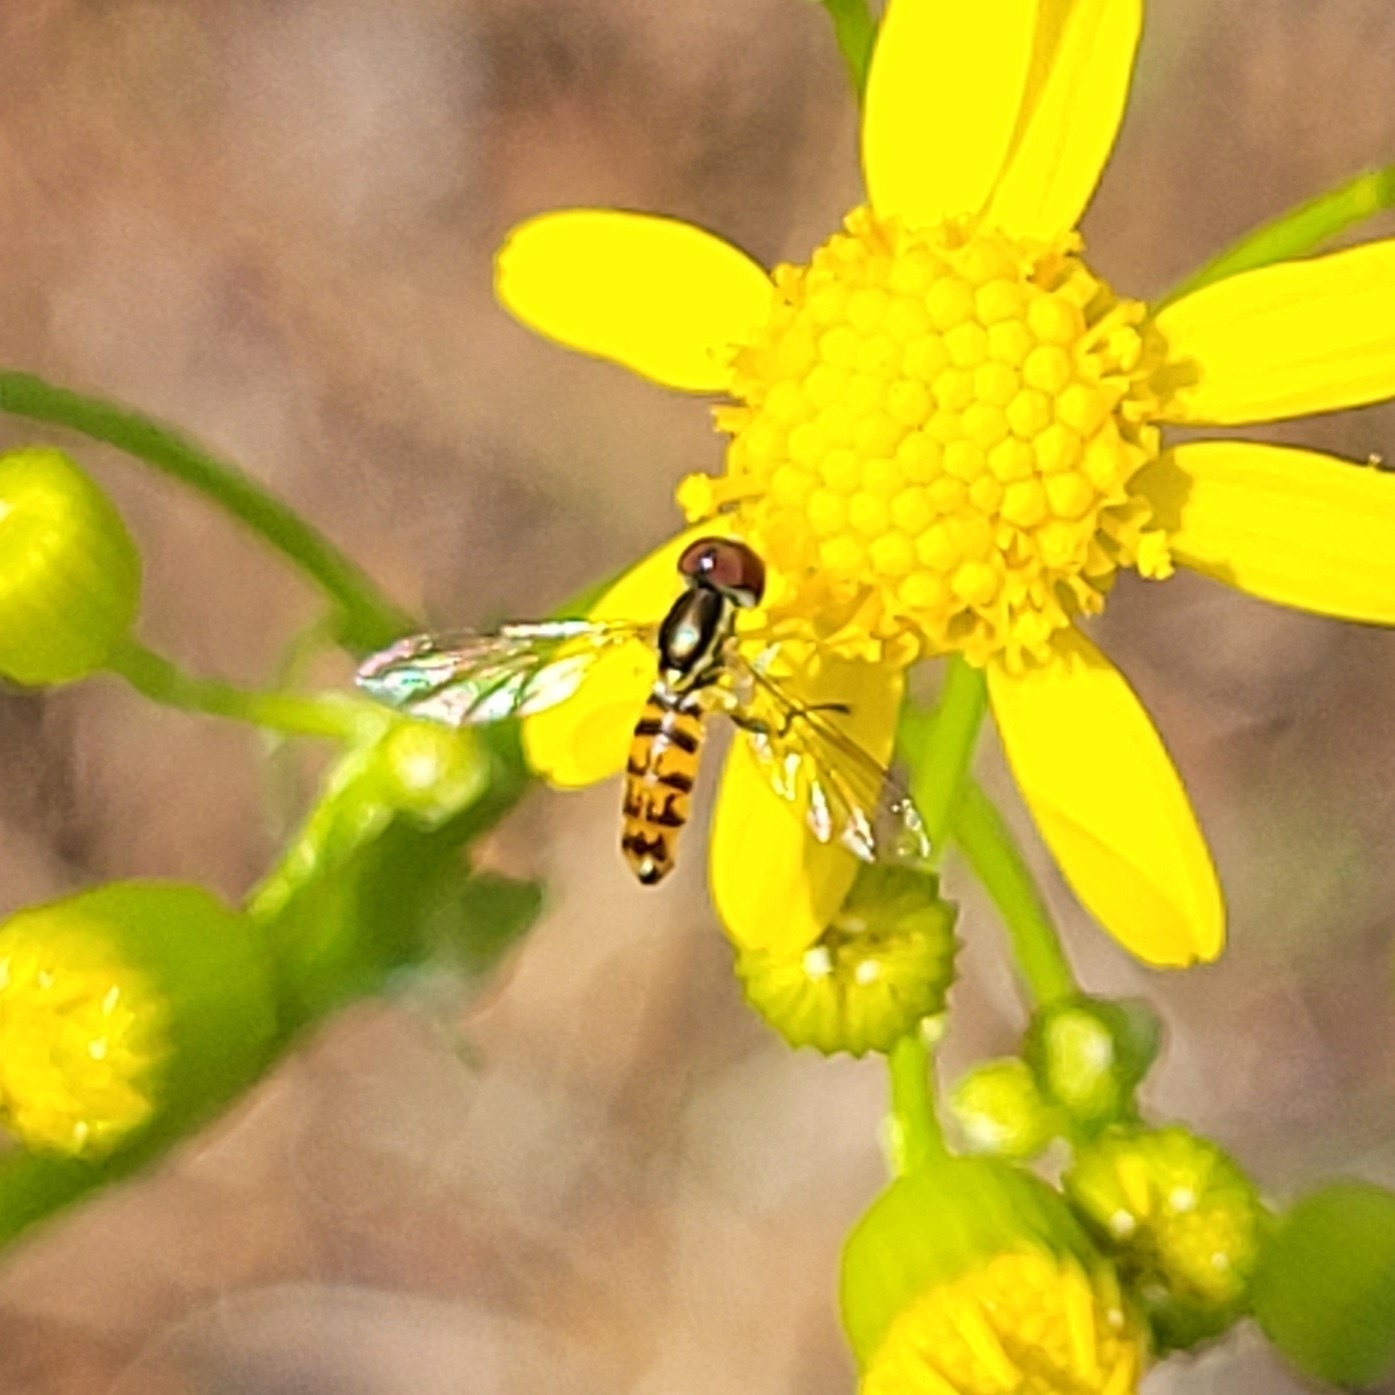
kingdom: Animalia
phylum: Arthropoda
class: Insecta
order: Diptera
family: Syrphidae
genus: Toxomerus
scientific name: Toxomerus geminatus
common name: Eastern calligrapher
